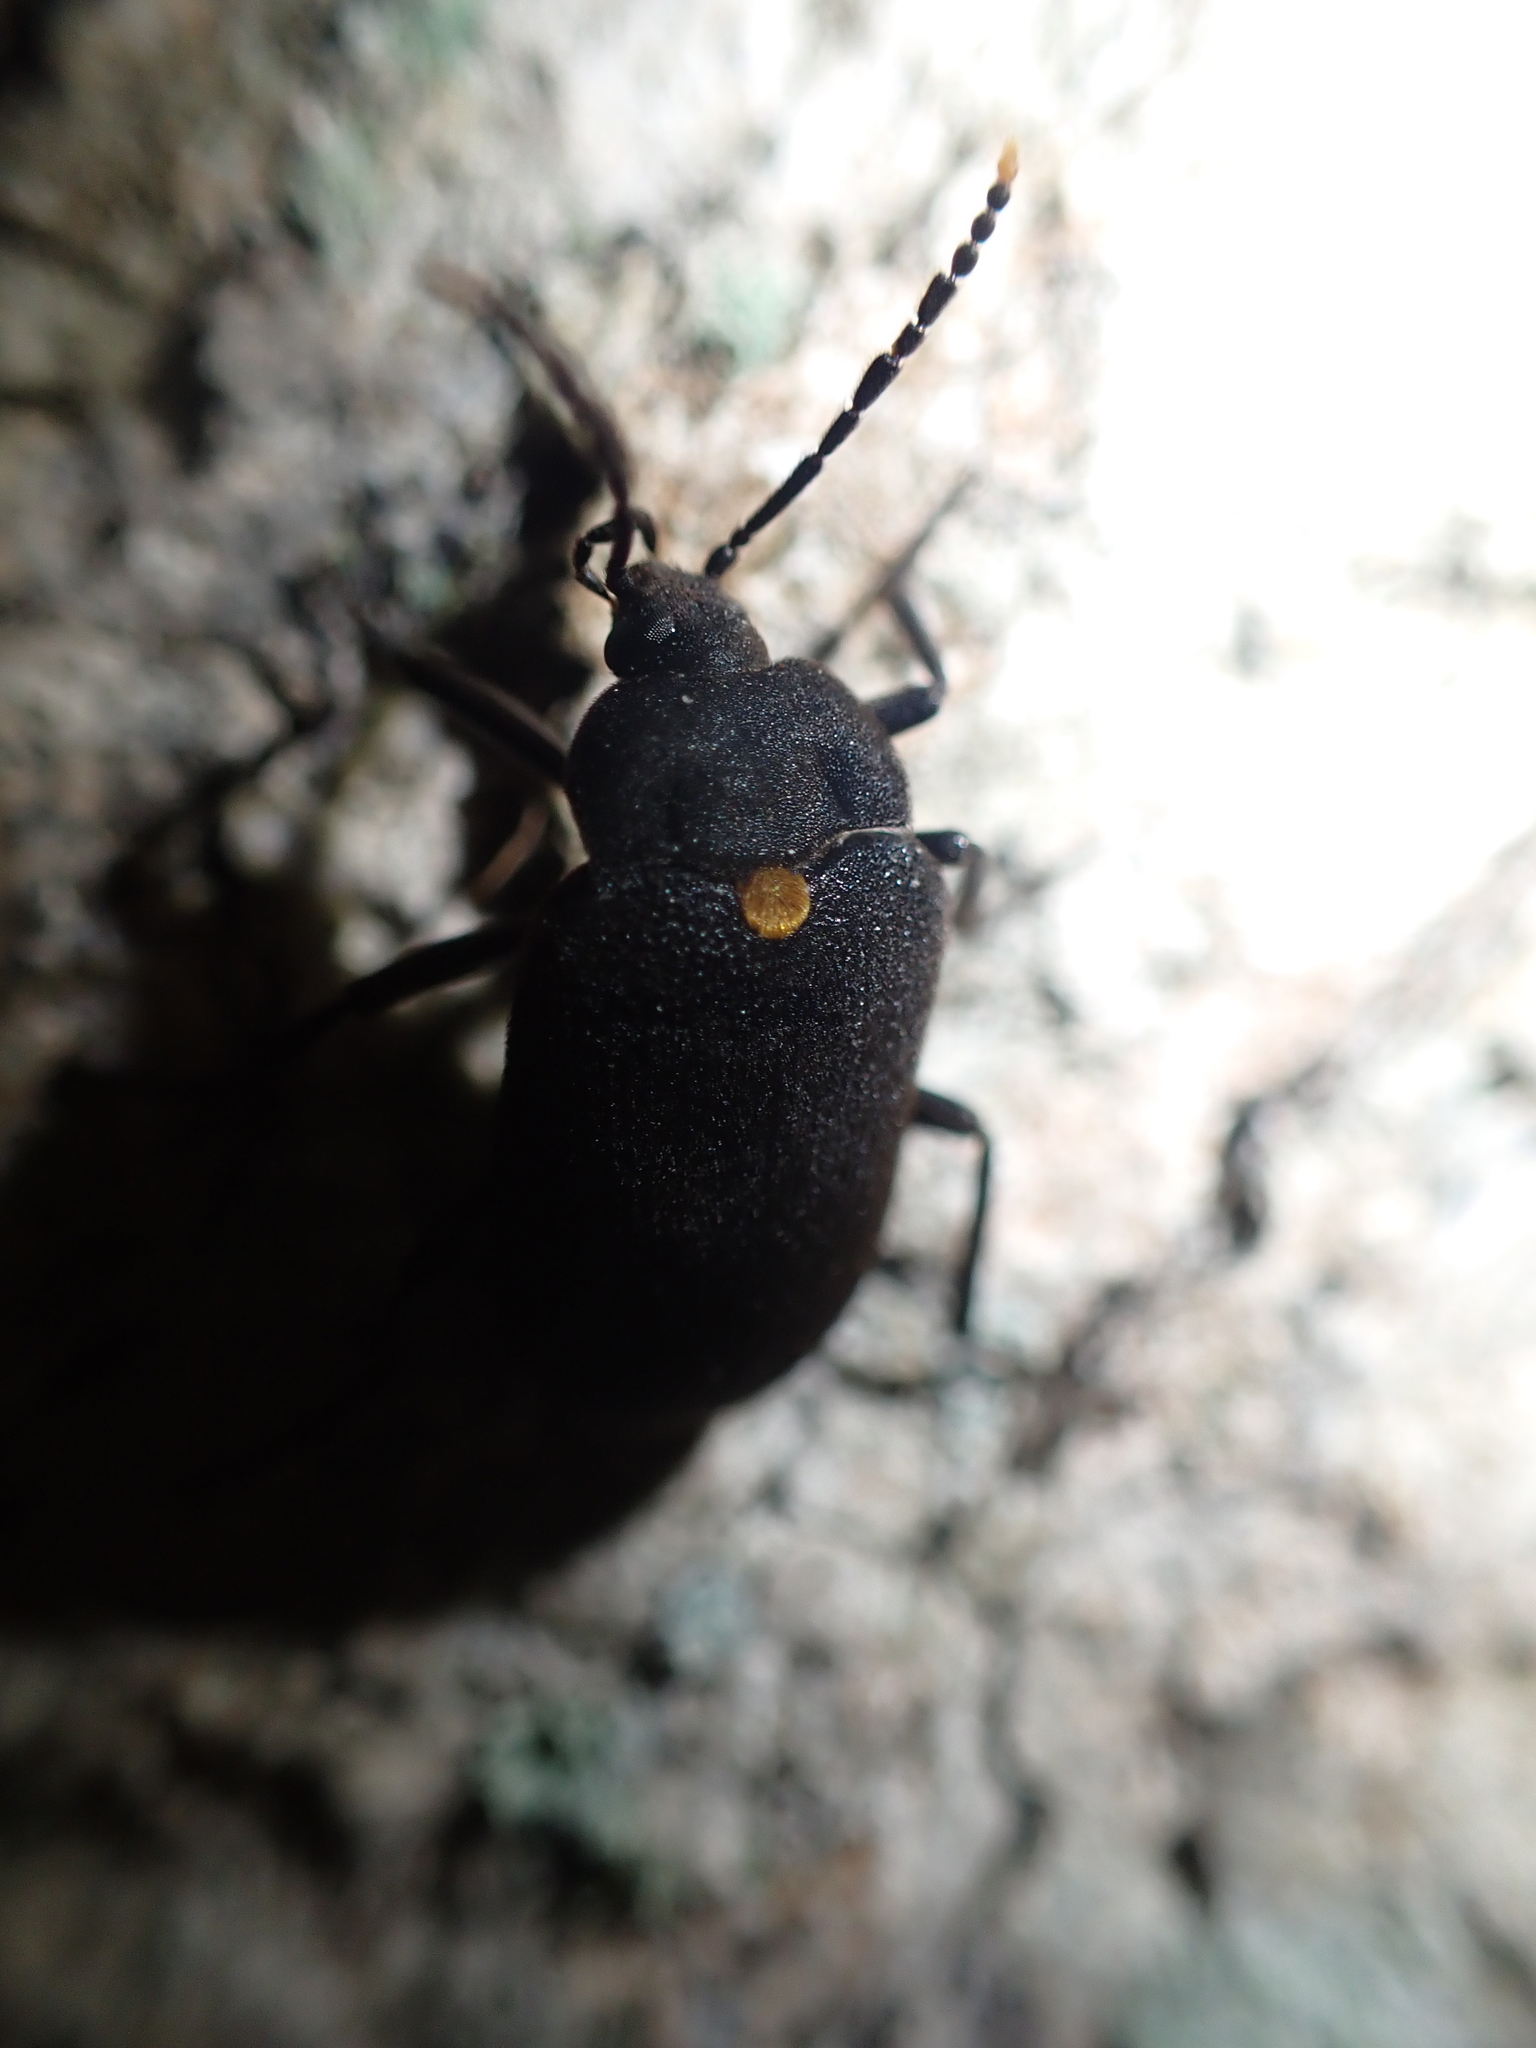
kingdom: Animalia
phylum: Arthropoda
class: Insecta
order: Coleoptera
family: Tetratomidae
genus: Penthe
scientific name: Penthe obliquata
